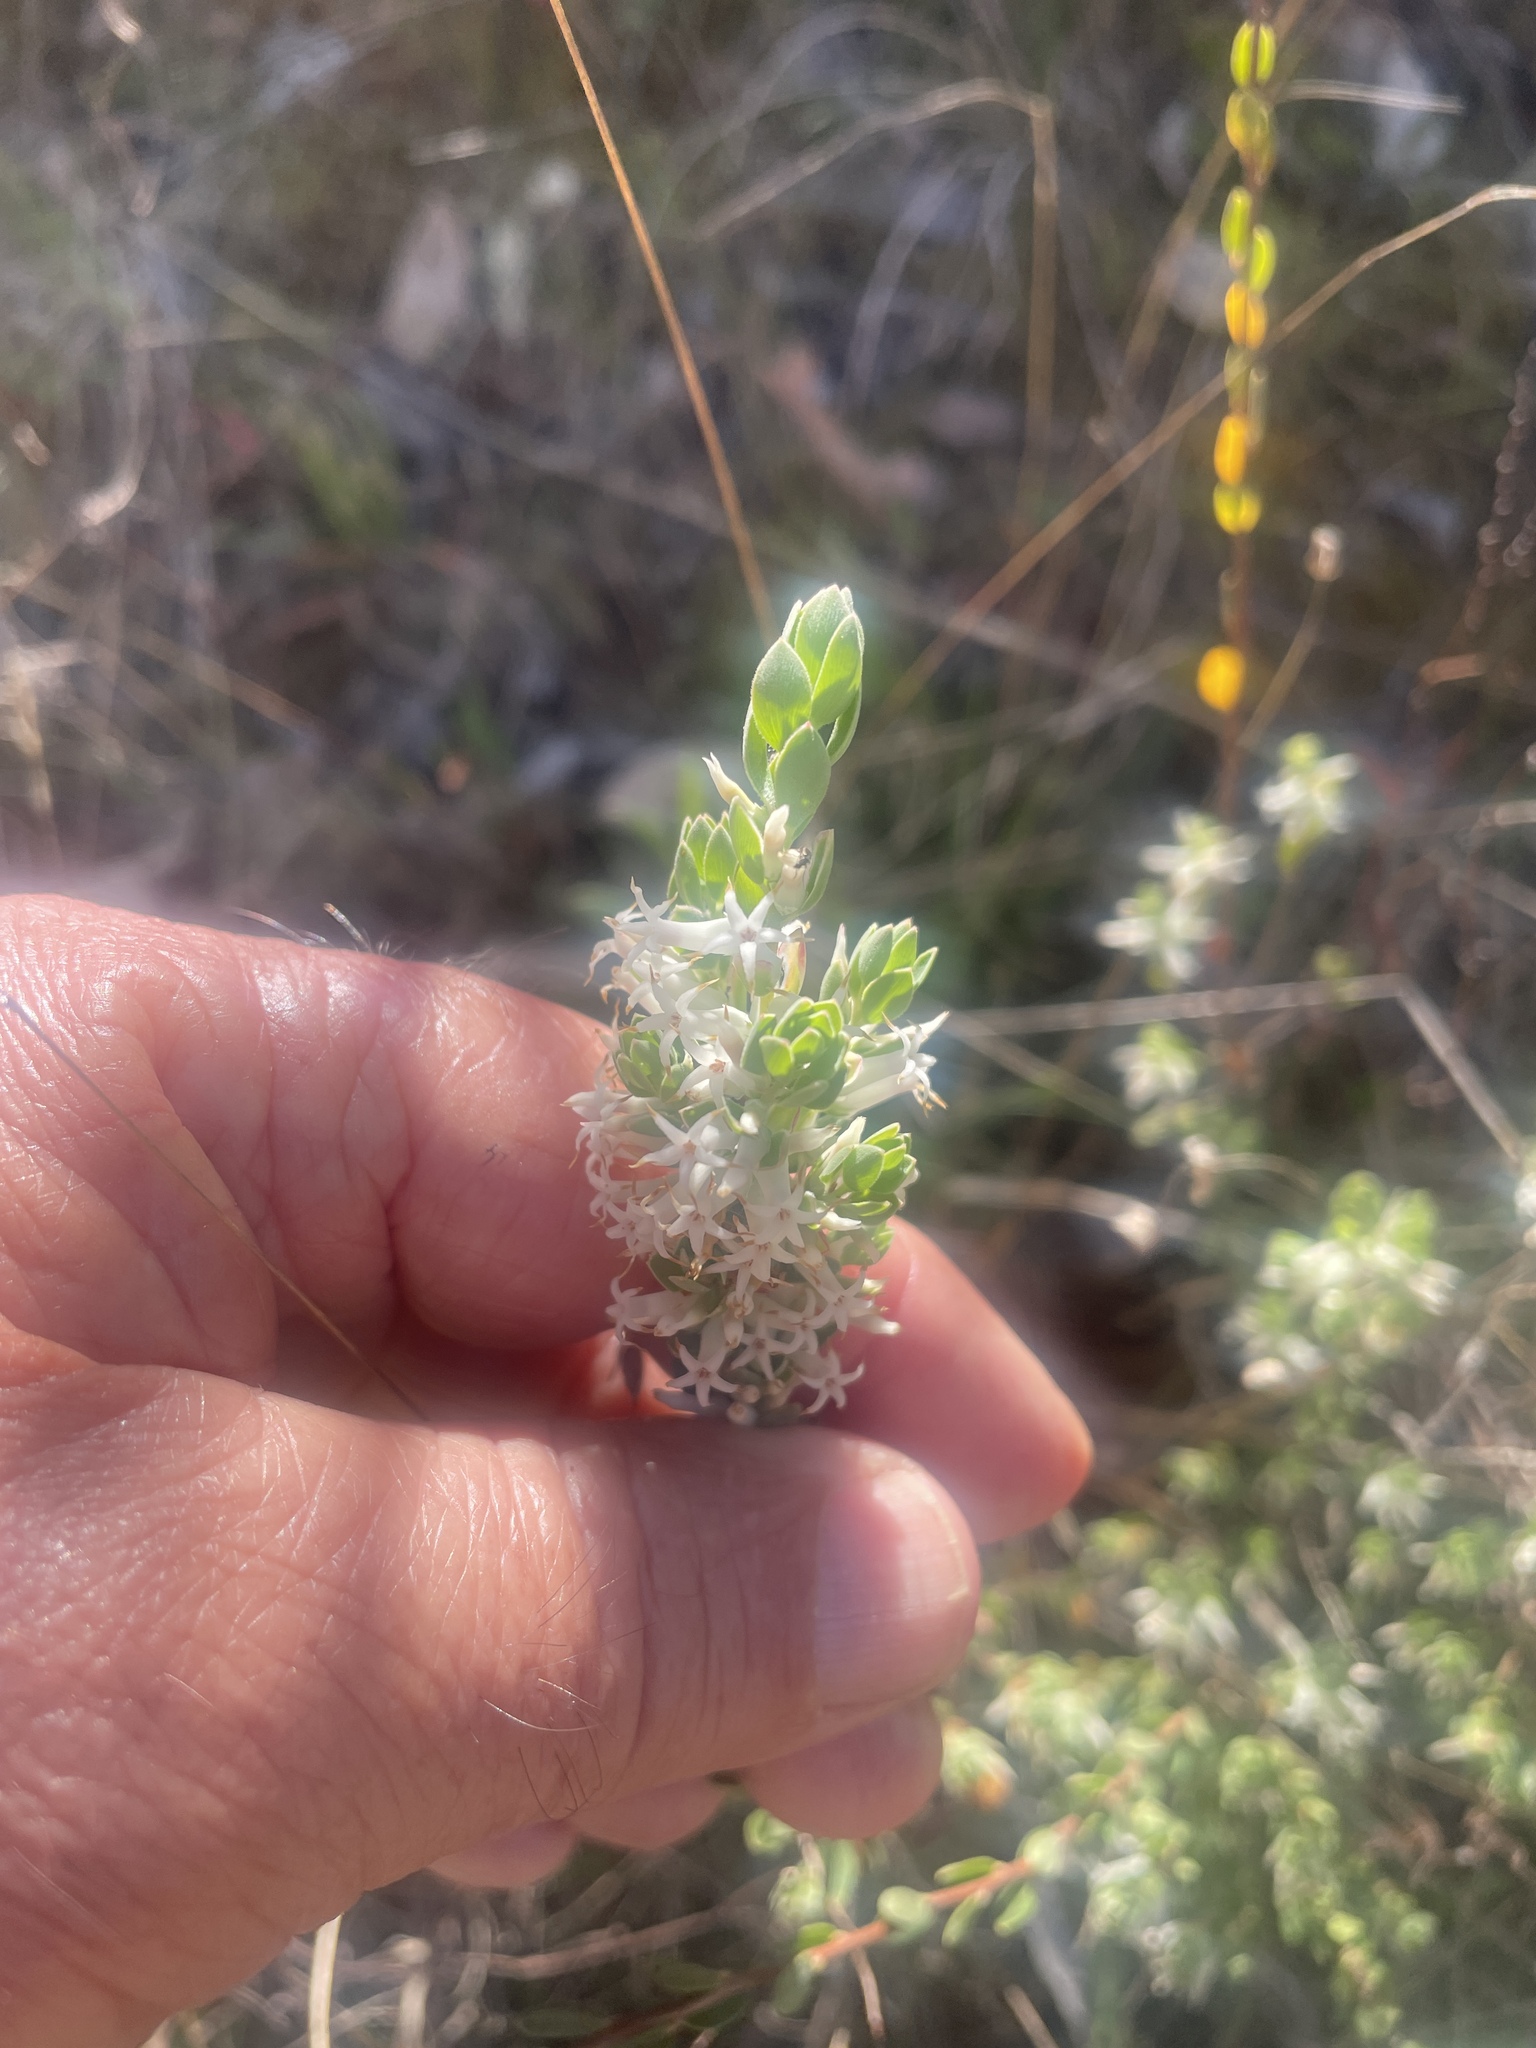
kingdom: Plantae
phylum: Tracheophyta
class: Magnoliopsida
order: Ericales
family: Ericaceae
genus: Brachyloma
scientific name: Brachyloma daphnoides
